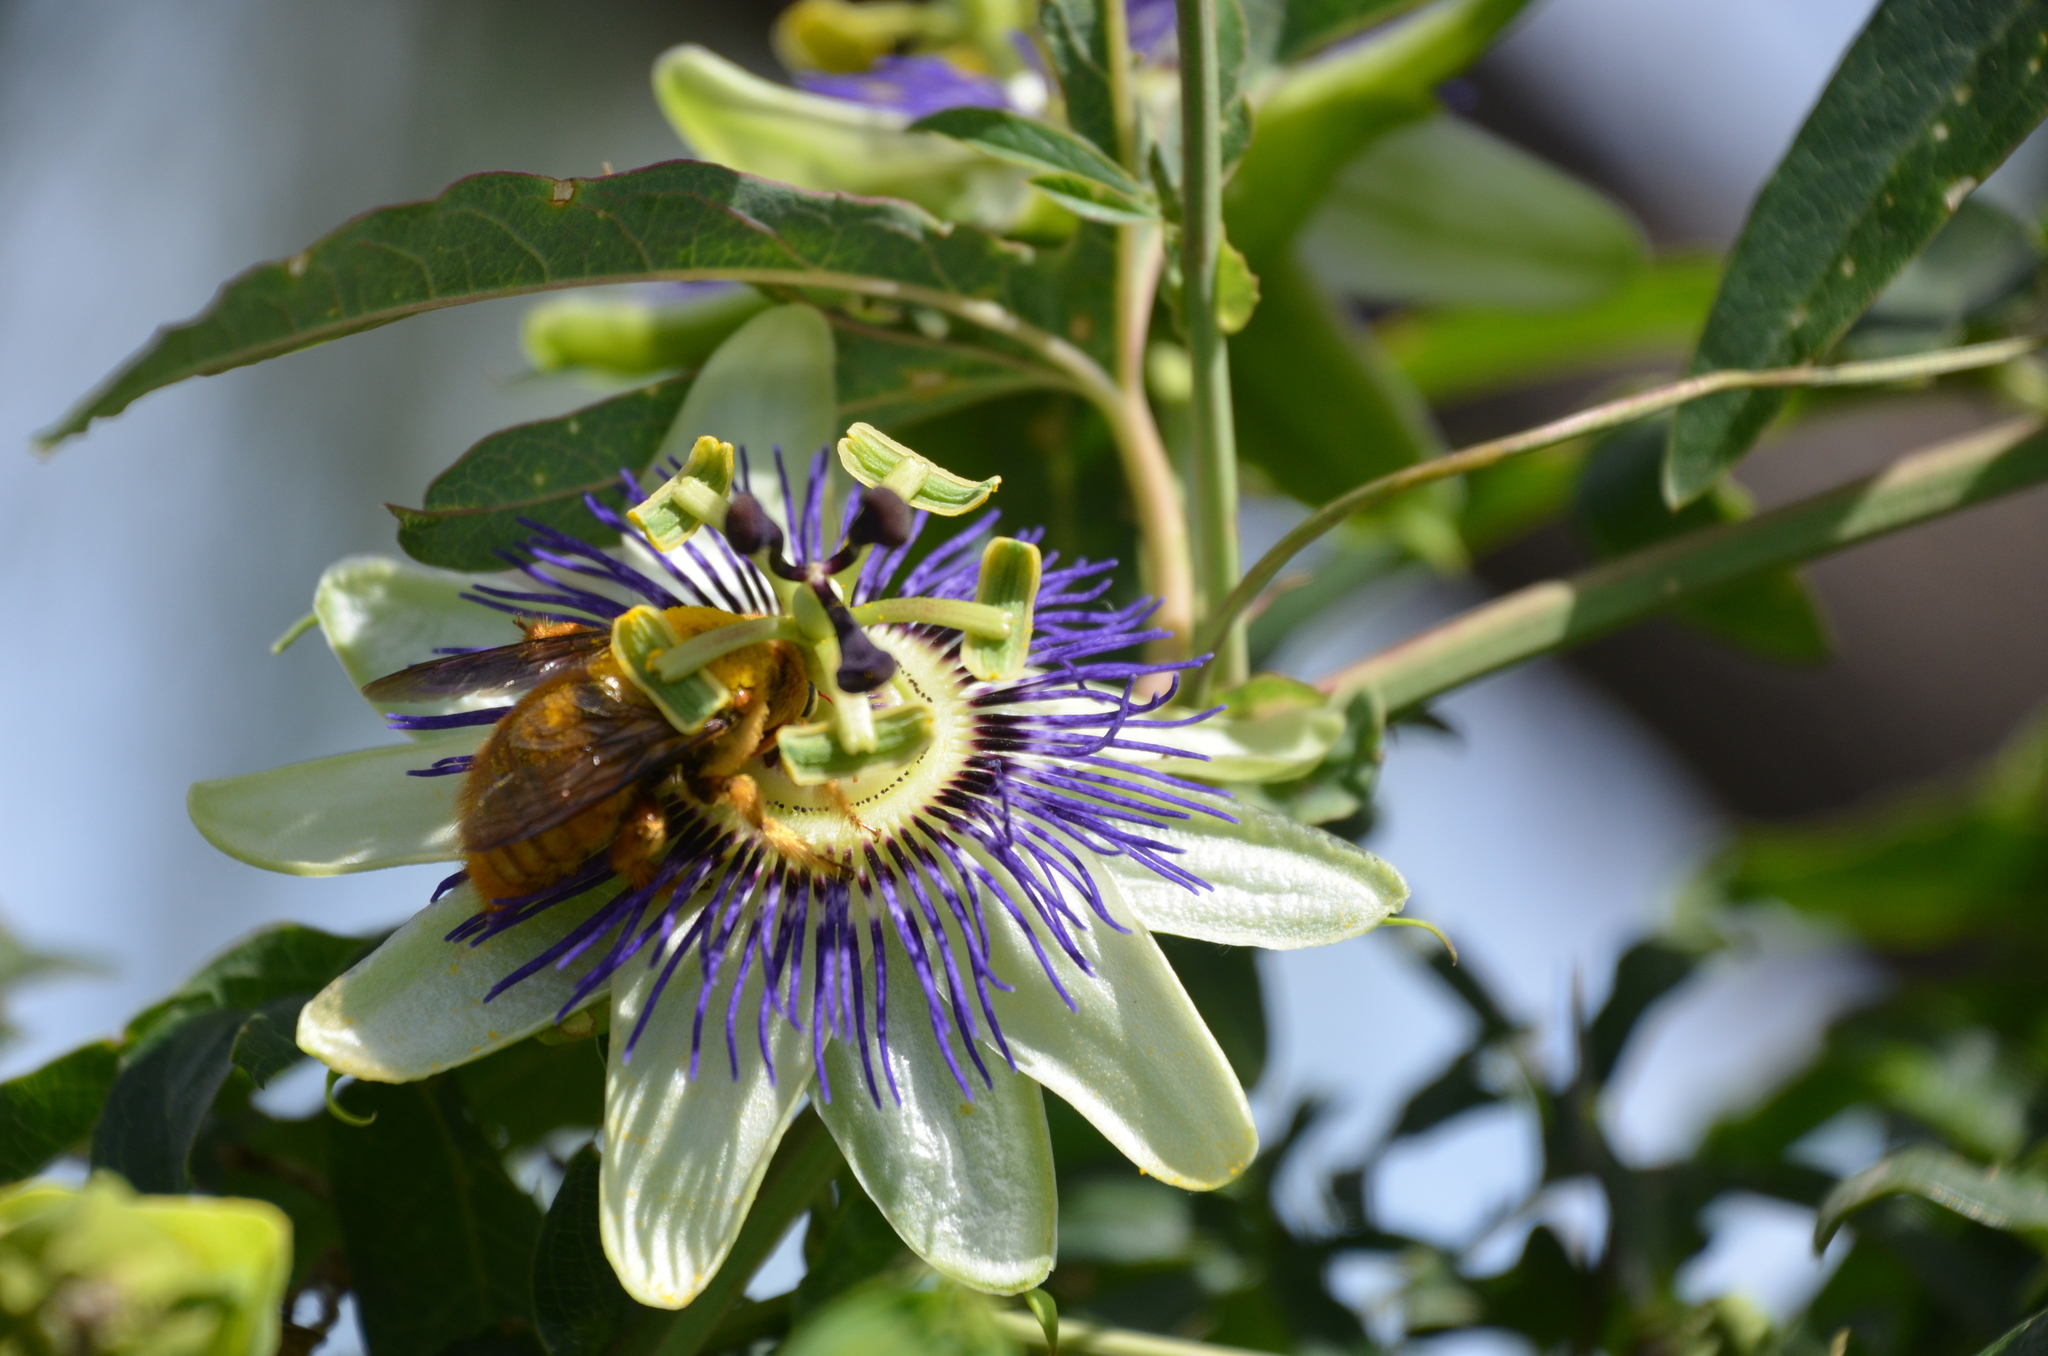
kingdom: Plantae
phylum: Tracheophyta
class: Magnoliopsida
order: Malpighiales
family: Passifloraceae
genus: Passiflora
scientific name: Passiflora caerulea
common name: Blue passionflower
